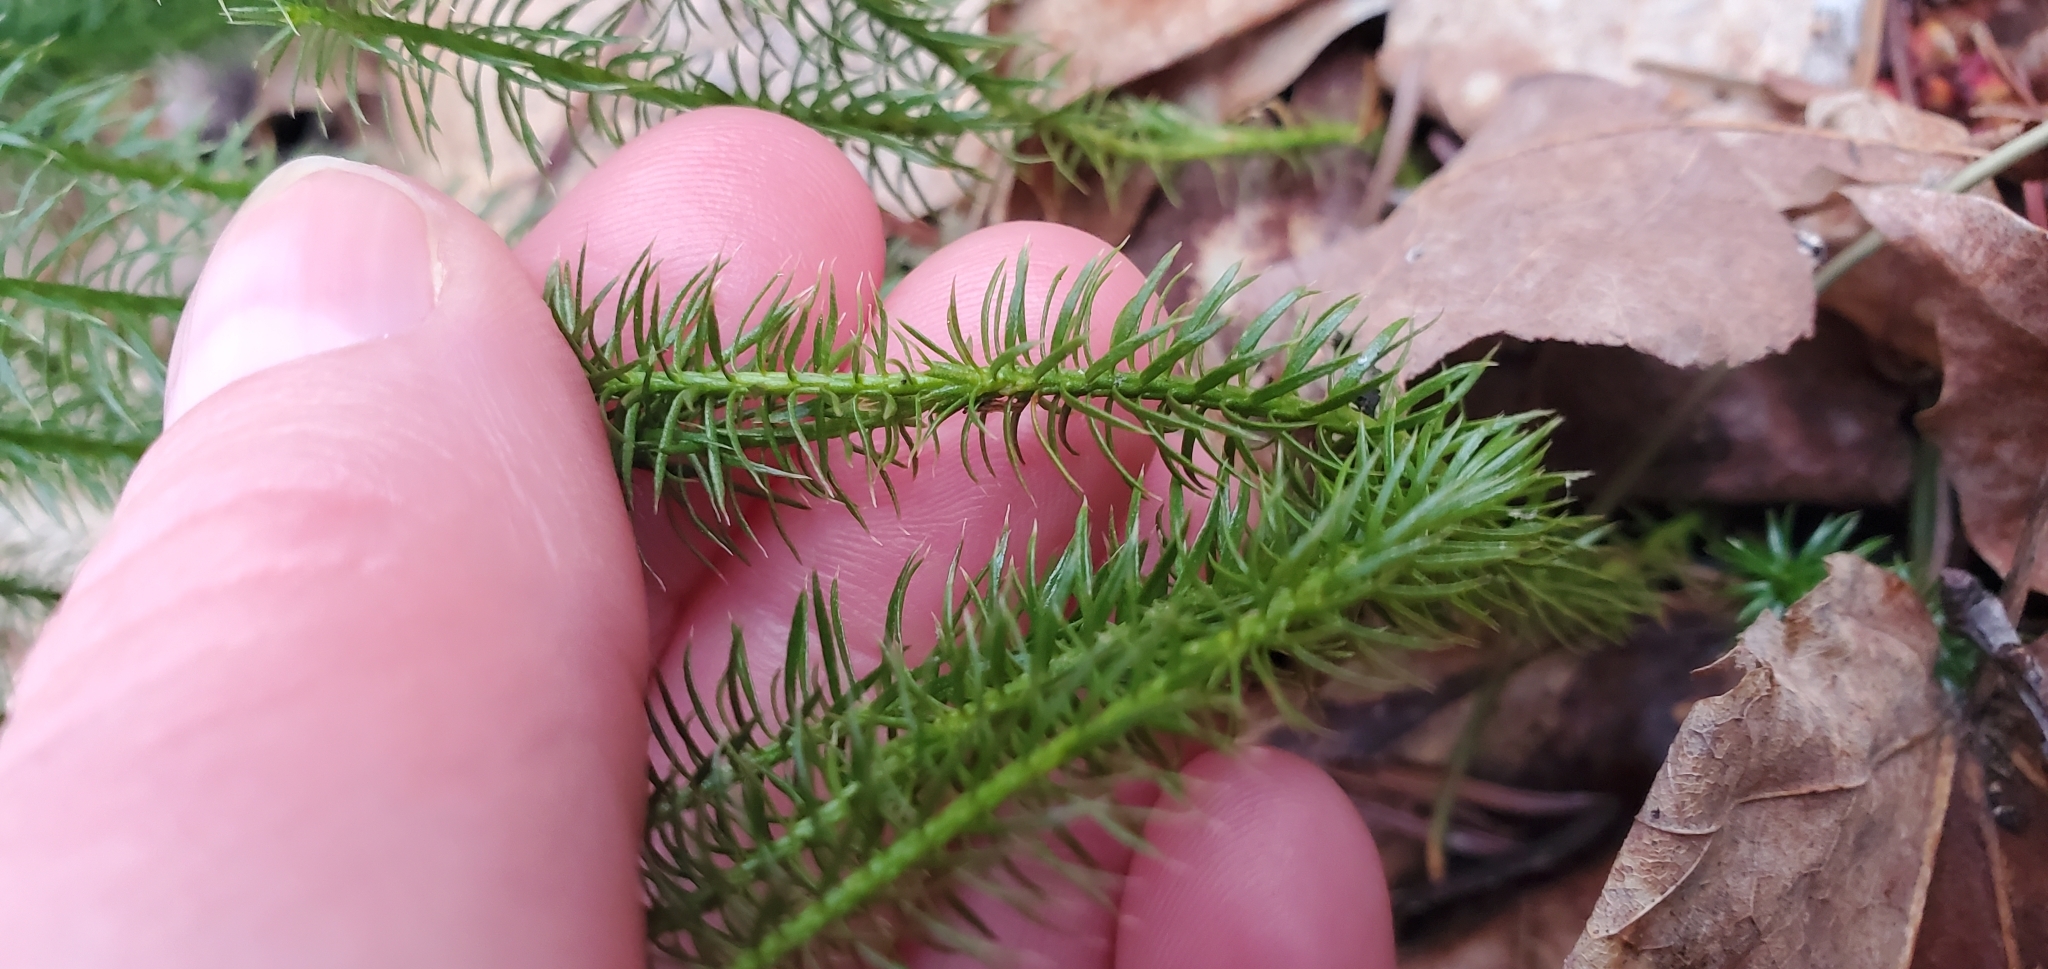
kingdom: Plantae
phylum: Tracheophyta
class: Lycopodiopsida
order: Lycopodiales
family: Lycopodiaceae
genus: Spinulum
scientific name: Spinulum annotinum
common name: Interrupted club-moss
